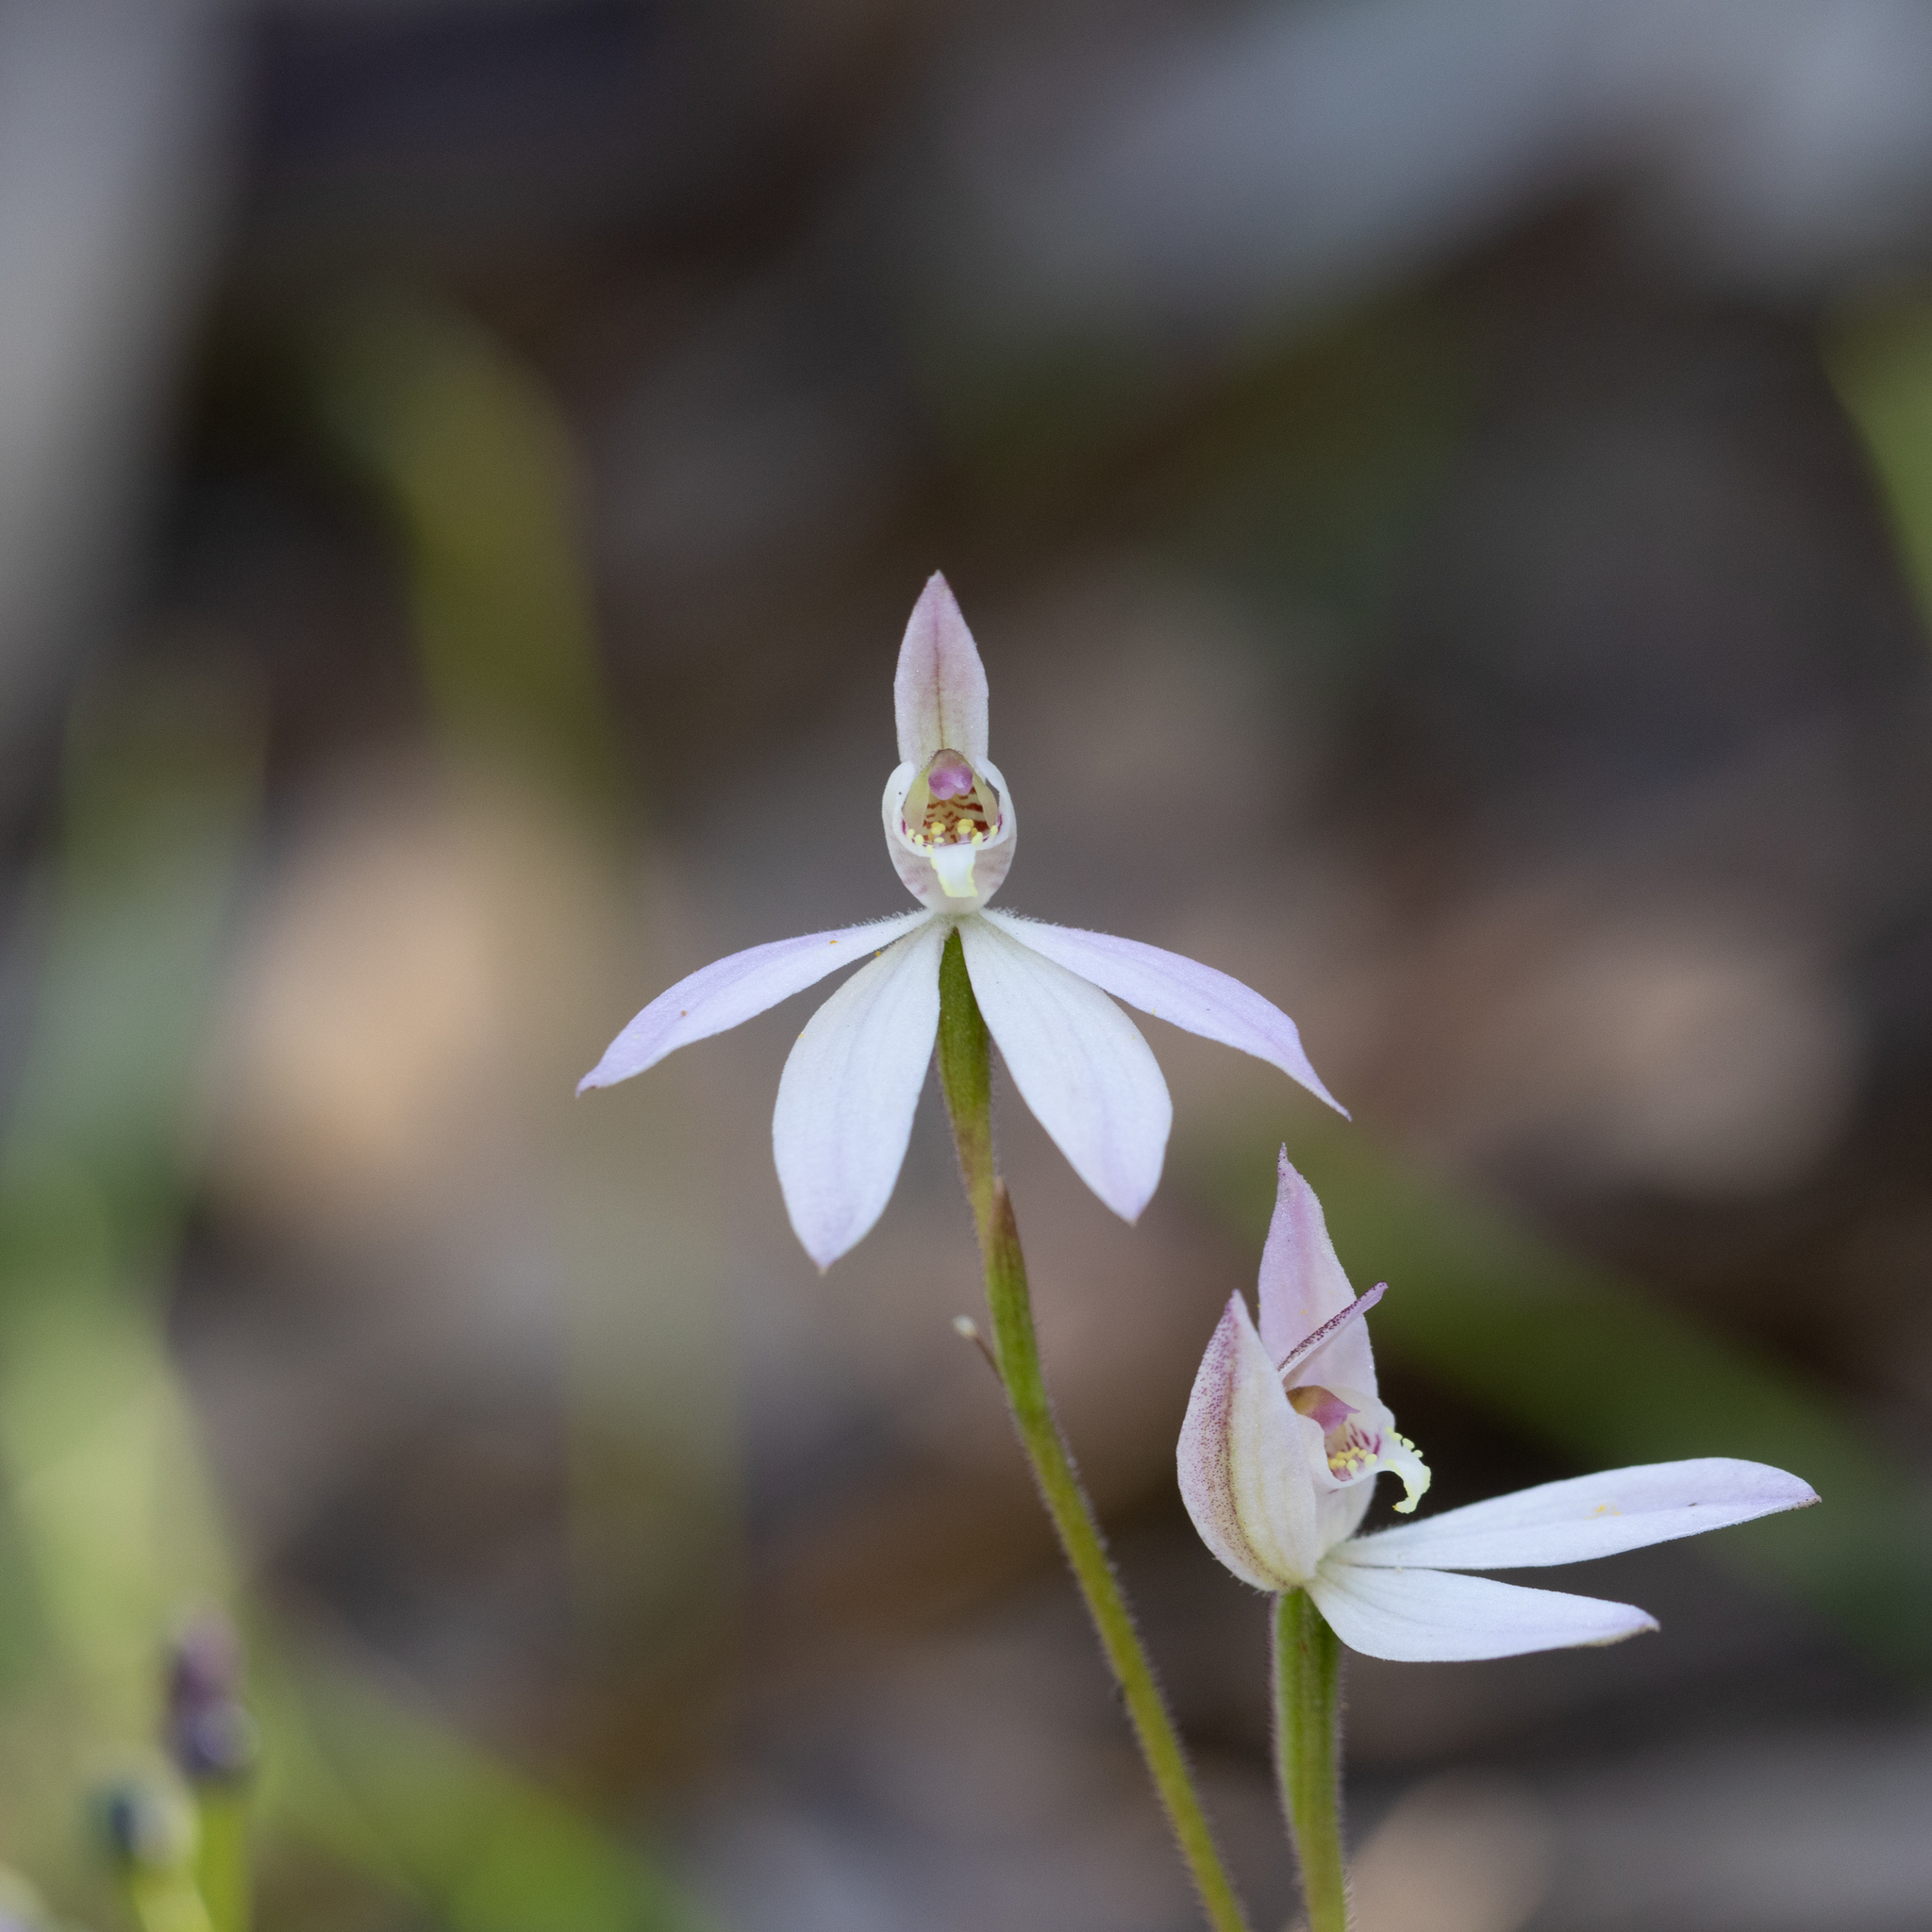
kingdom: Plantae
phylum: Tracheophyta
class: Liliopsida
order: Asparagales
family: Orchidaceae
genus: Caladenia
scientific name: Caladenia carnea
